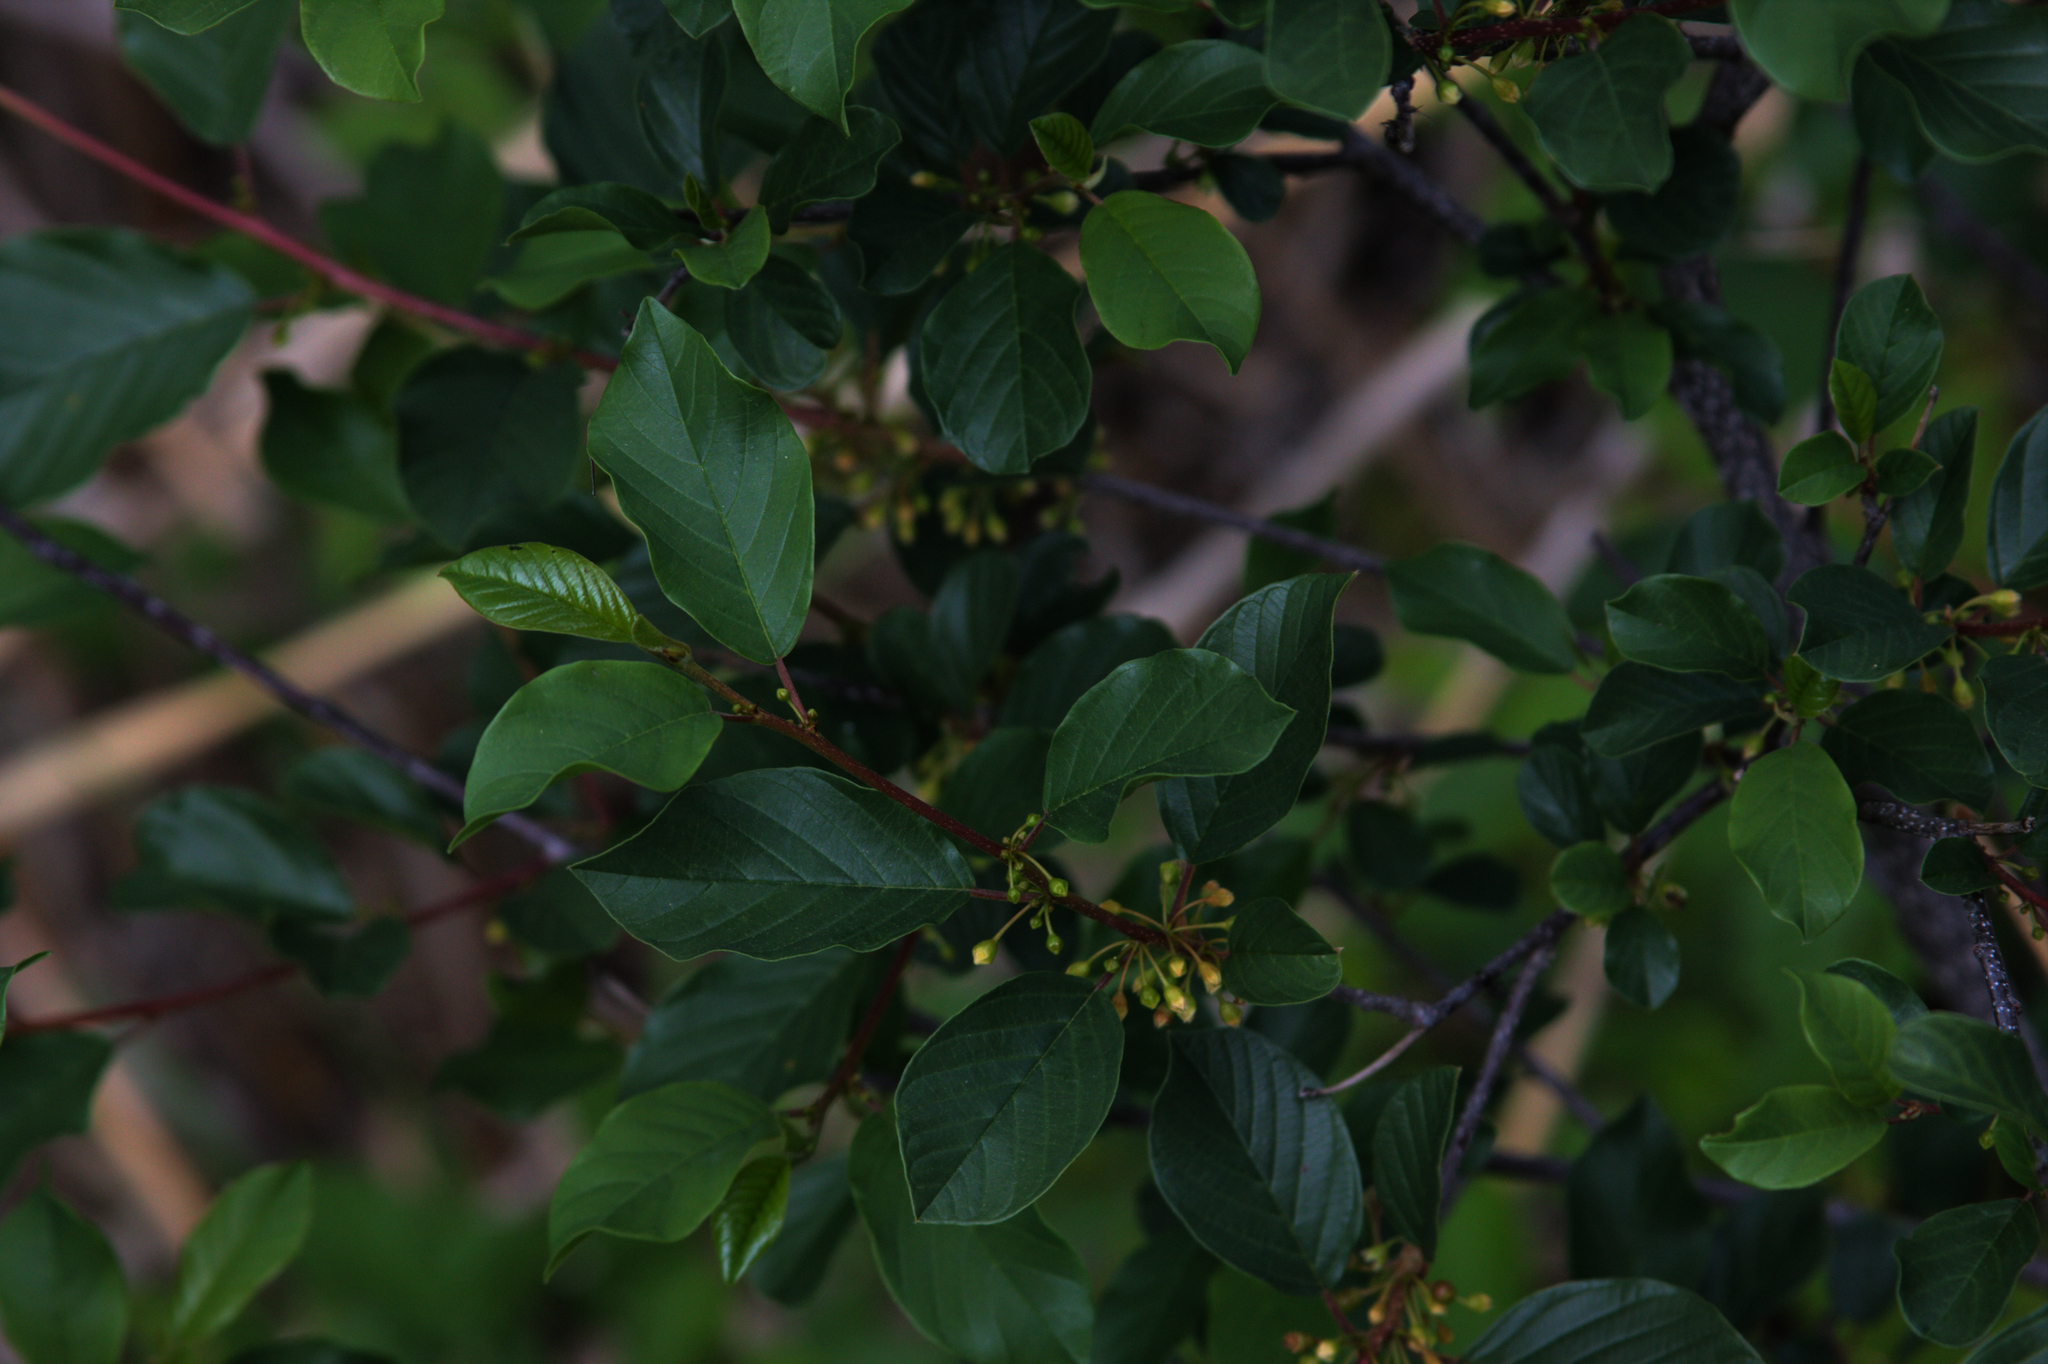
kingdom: Plantae
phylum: Tracheophyta
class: Magnoliopsida
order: Rosales
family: Rhamnaceae
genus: Frangula
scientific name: Frangula alnus
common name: Alder buckthorn
